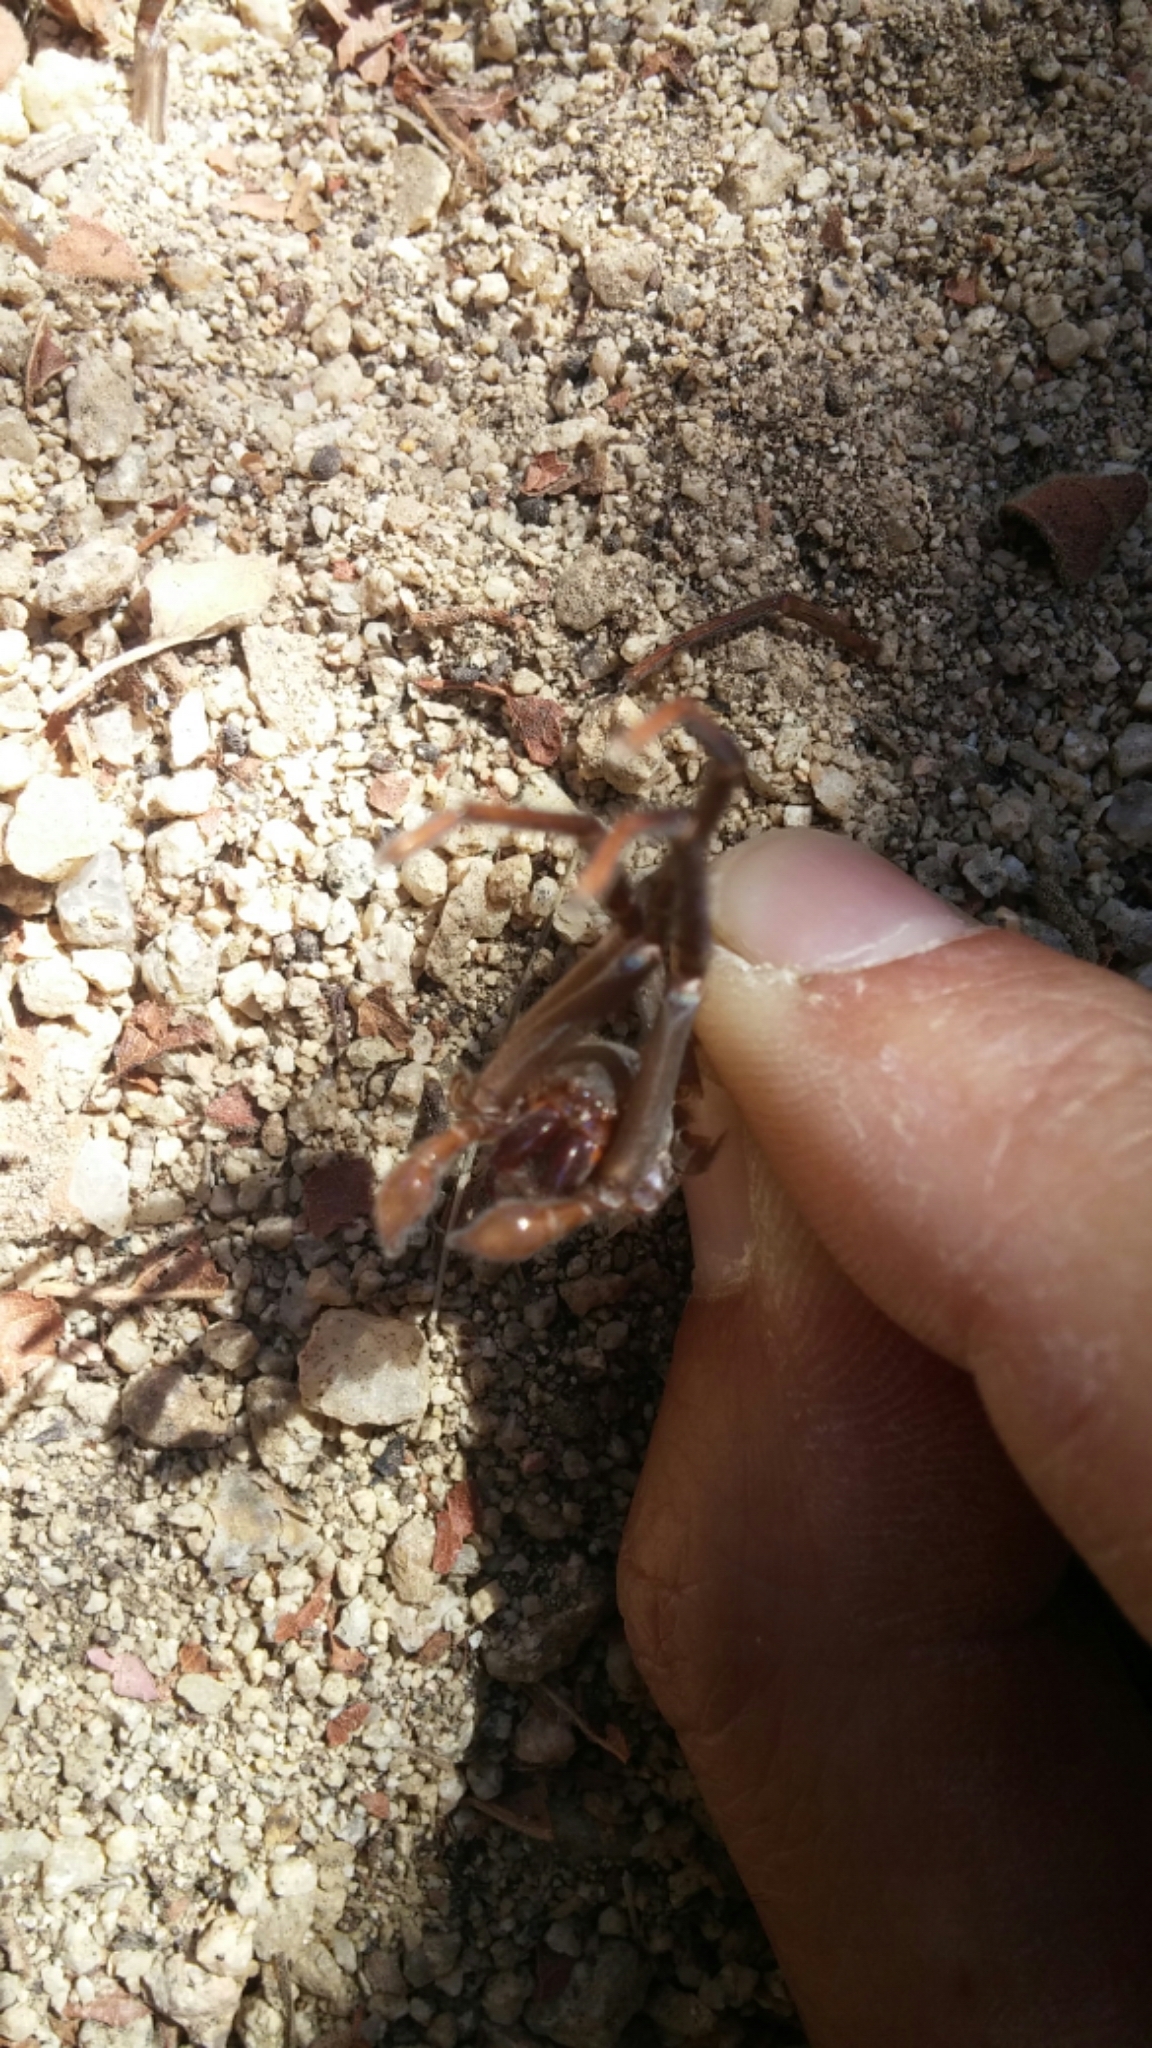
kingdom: Animalia
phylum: Arthropoda
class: Arachnida
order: Araneae
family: Ctenidae
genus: Califorctenus
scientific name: Califorctenus cacachilensis
